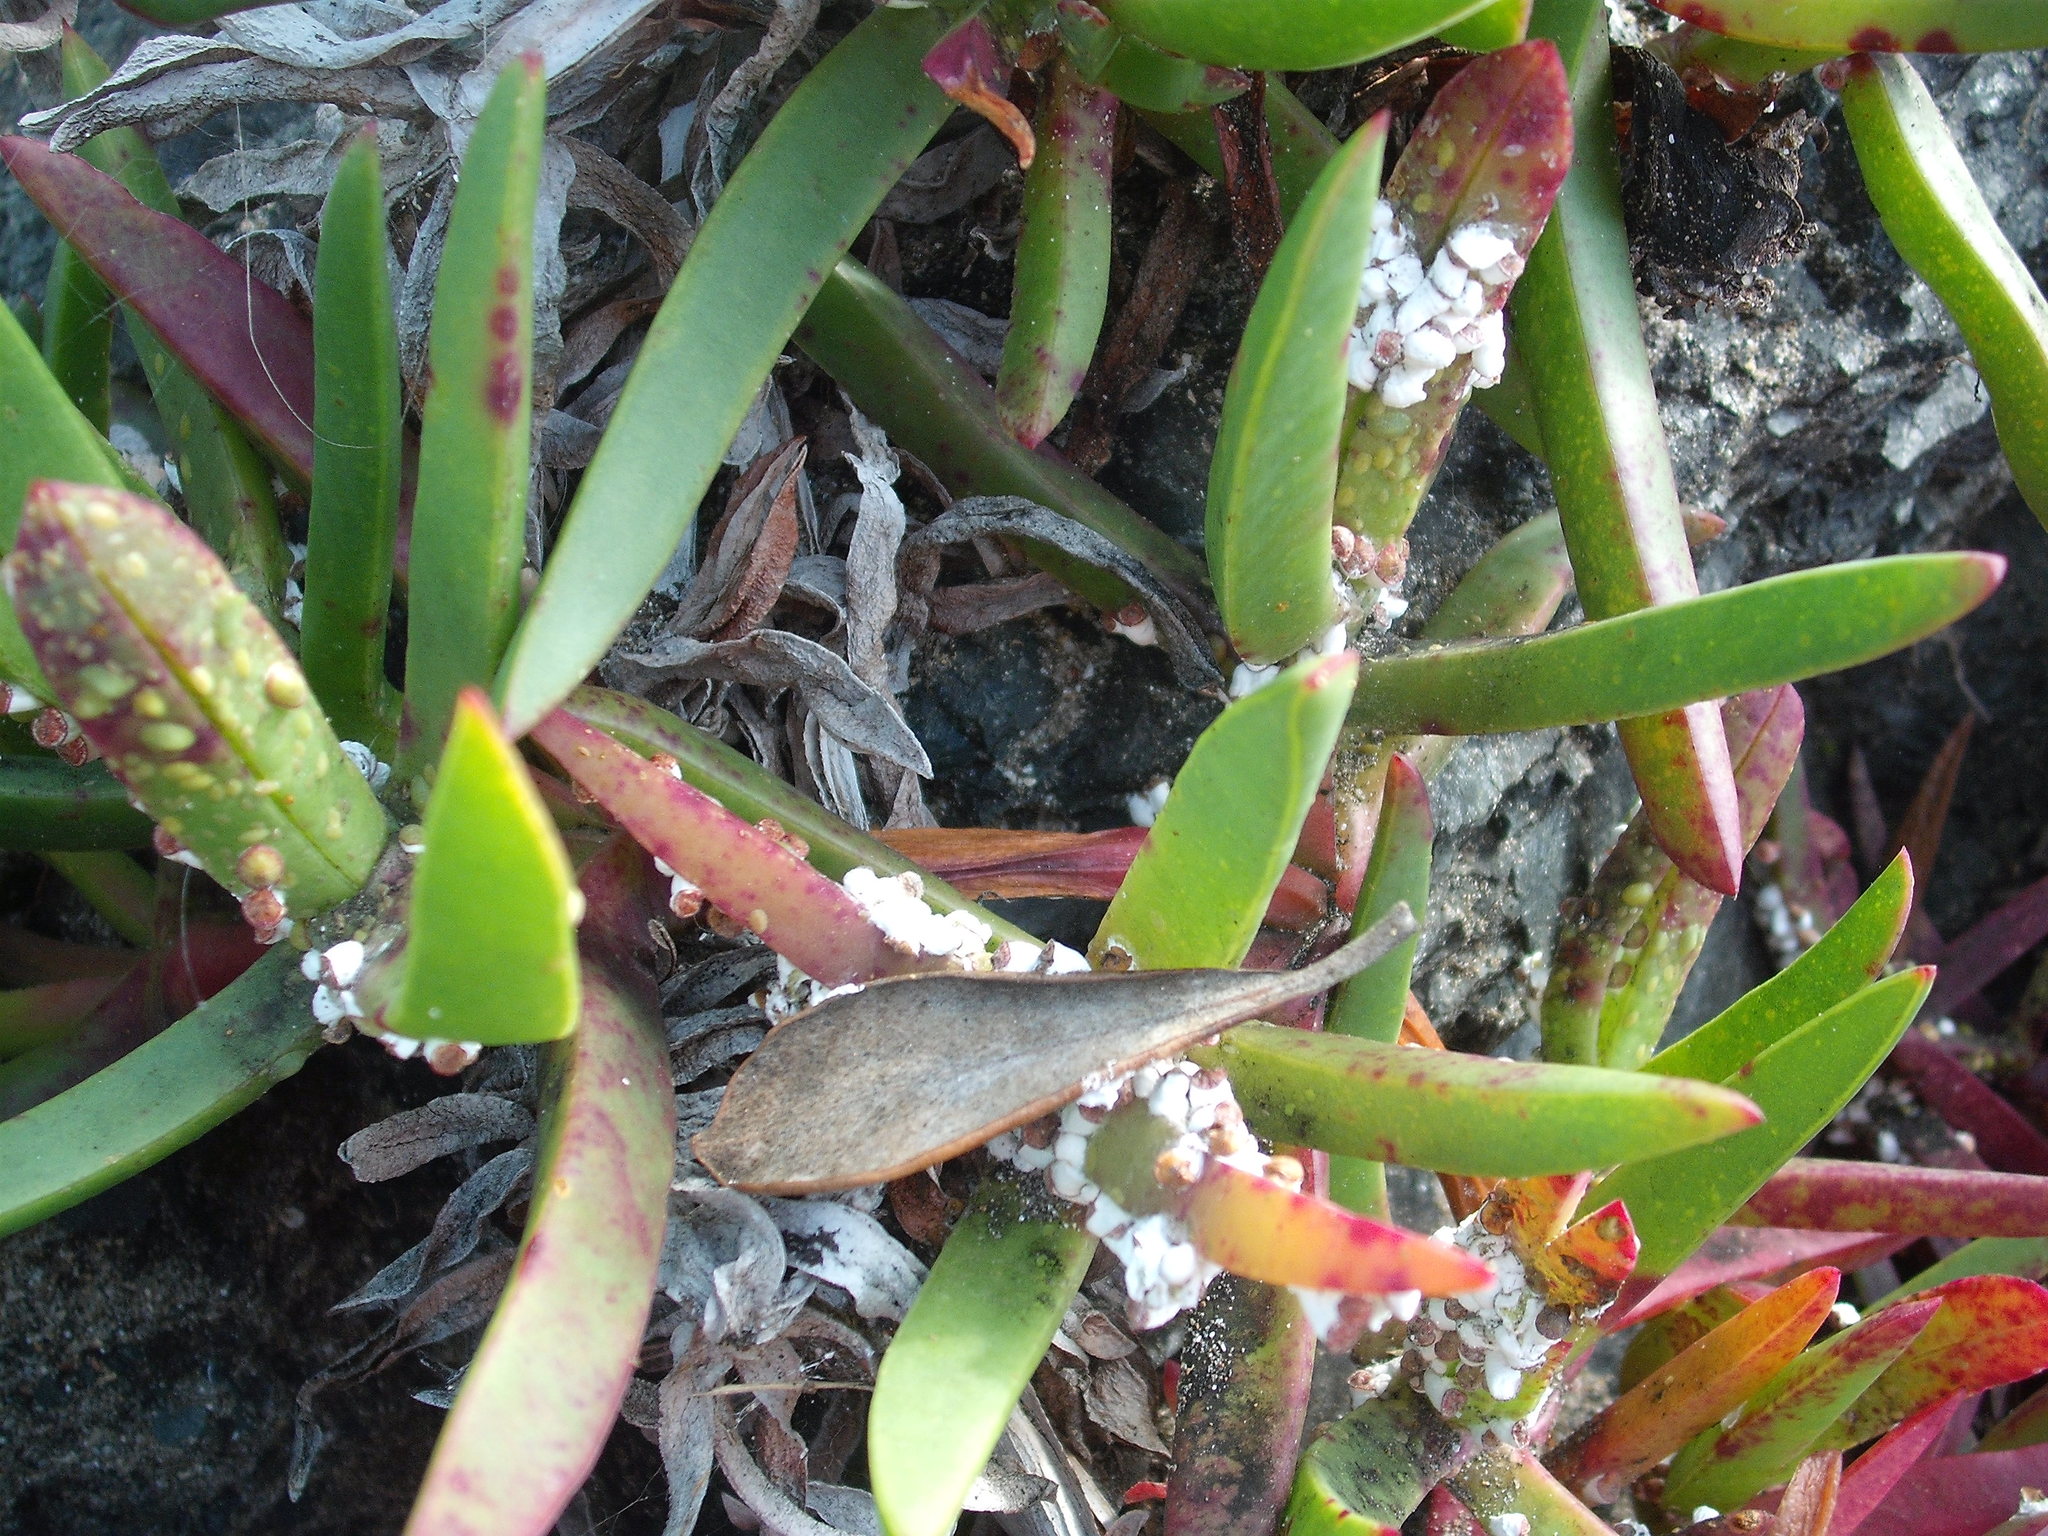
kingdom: Animalia
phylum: Arthropoda
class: Insecta
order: Hemiptera
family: Coccidae
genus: Pulvinariella
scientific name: Pulvinariella mesembryanthemi
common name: Cottony pigface scale
